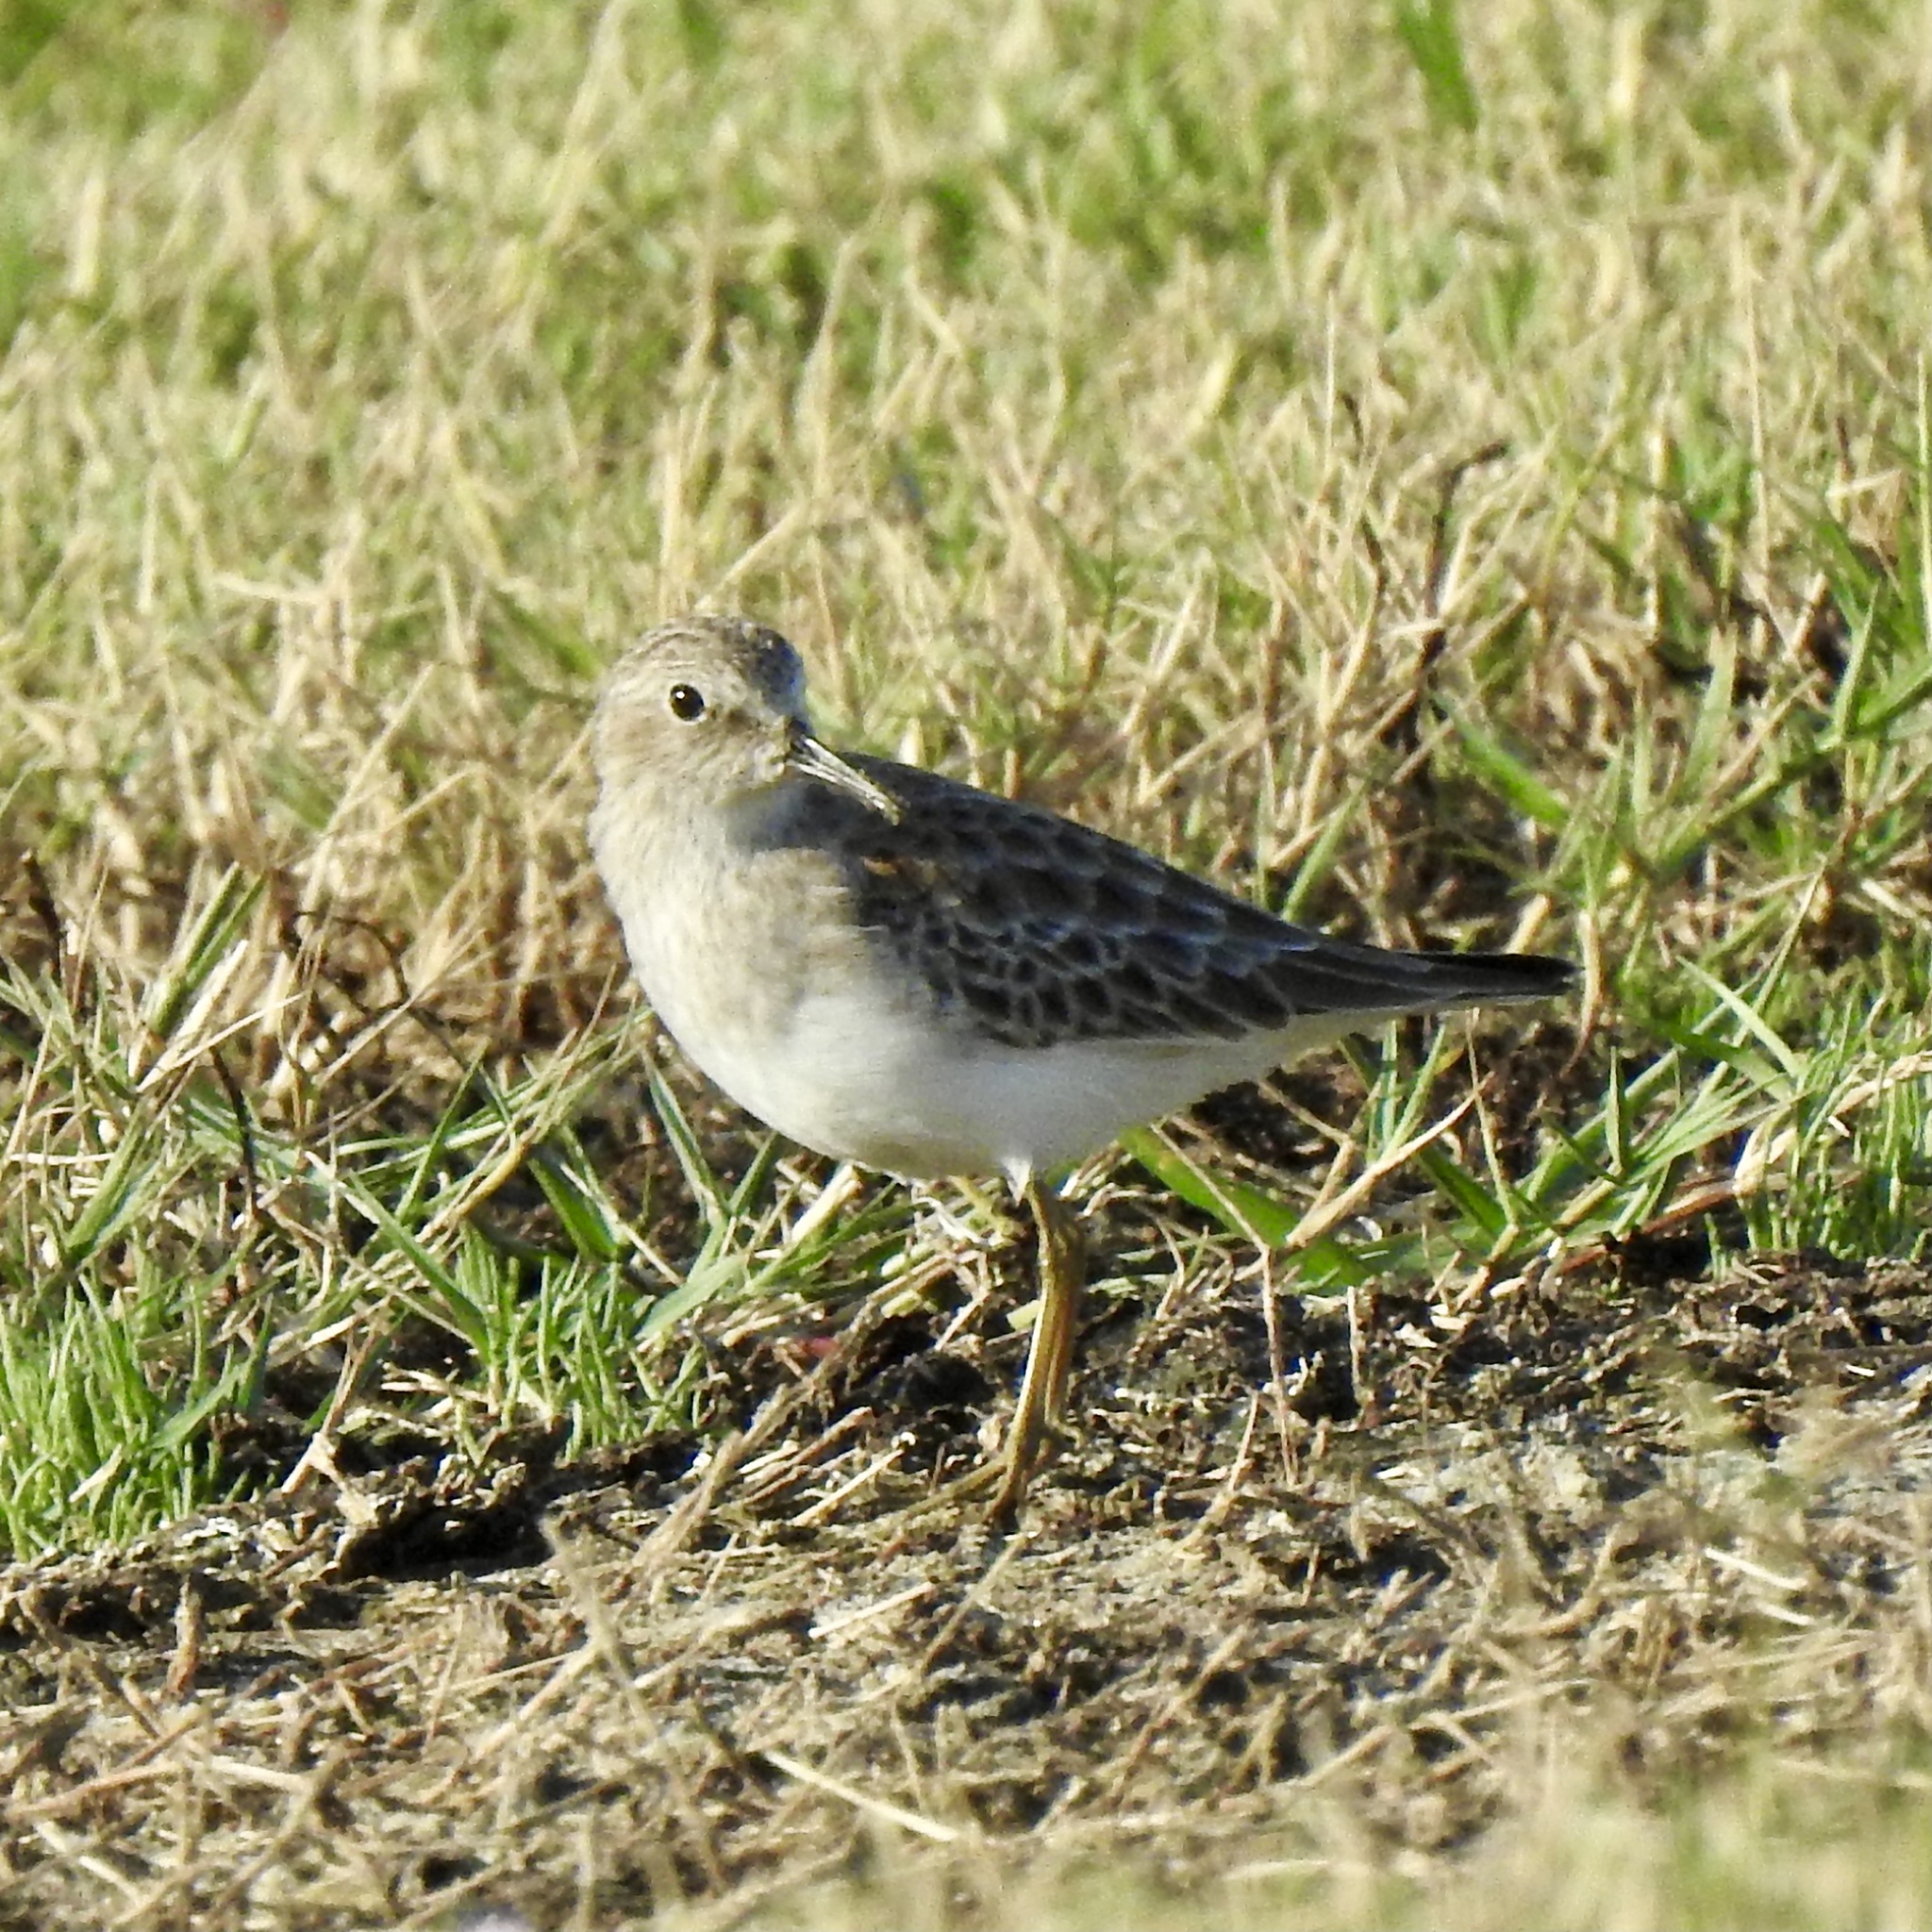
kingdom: Animalia
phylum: Chordata
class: Aves
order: Charadriiformes
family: Scolopacidae
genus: Calidris
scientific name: Calidris minutilla
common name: Least sandpiper
